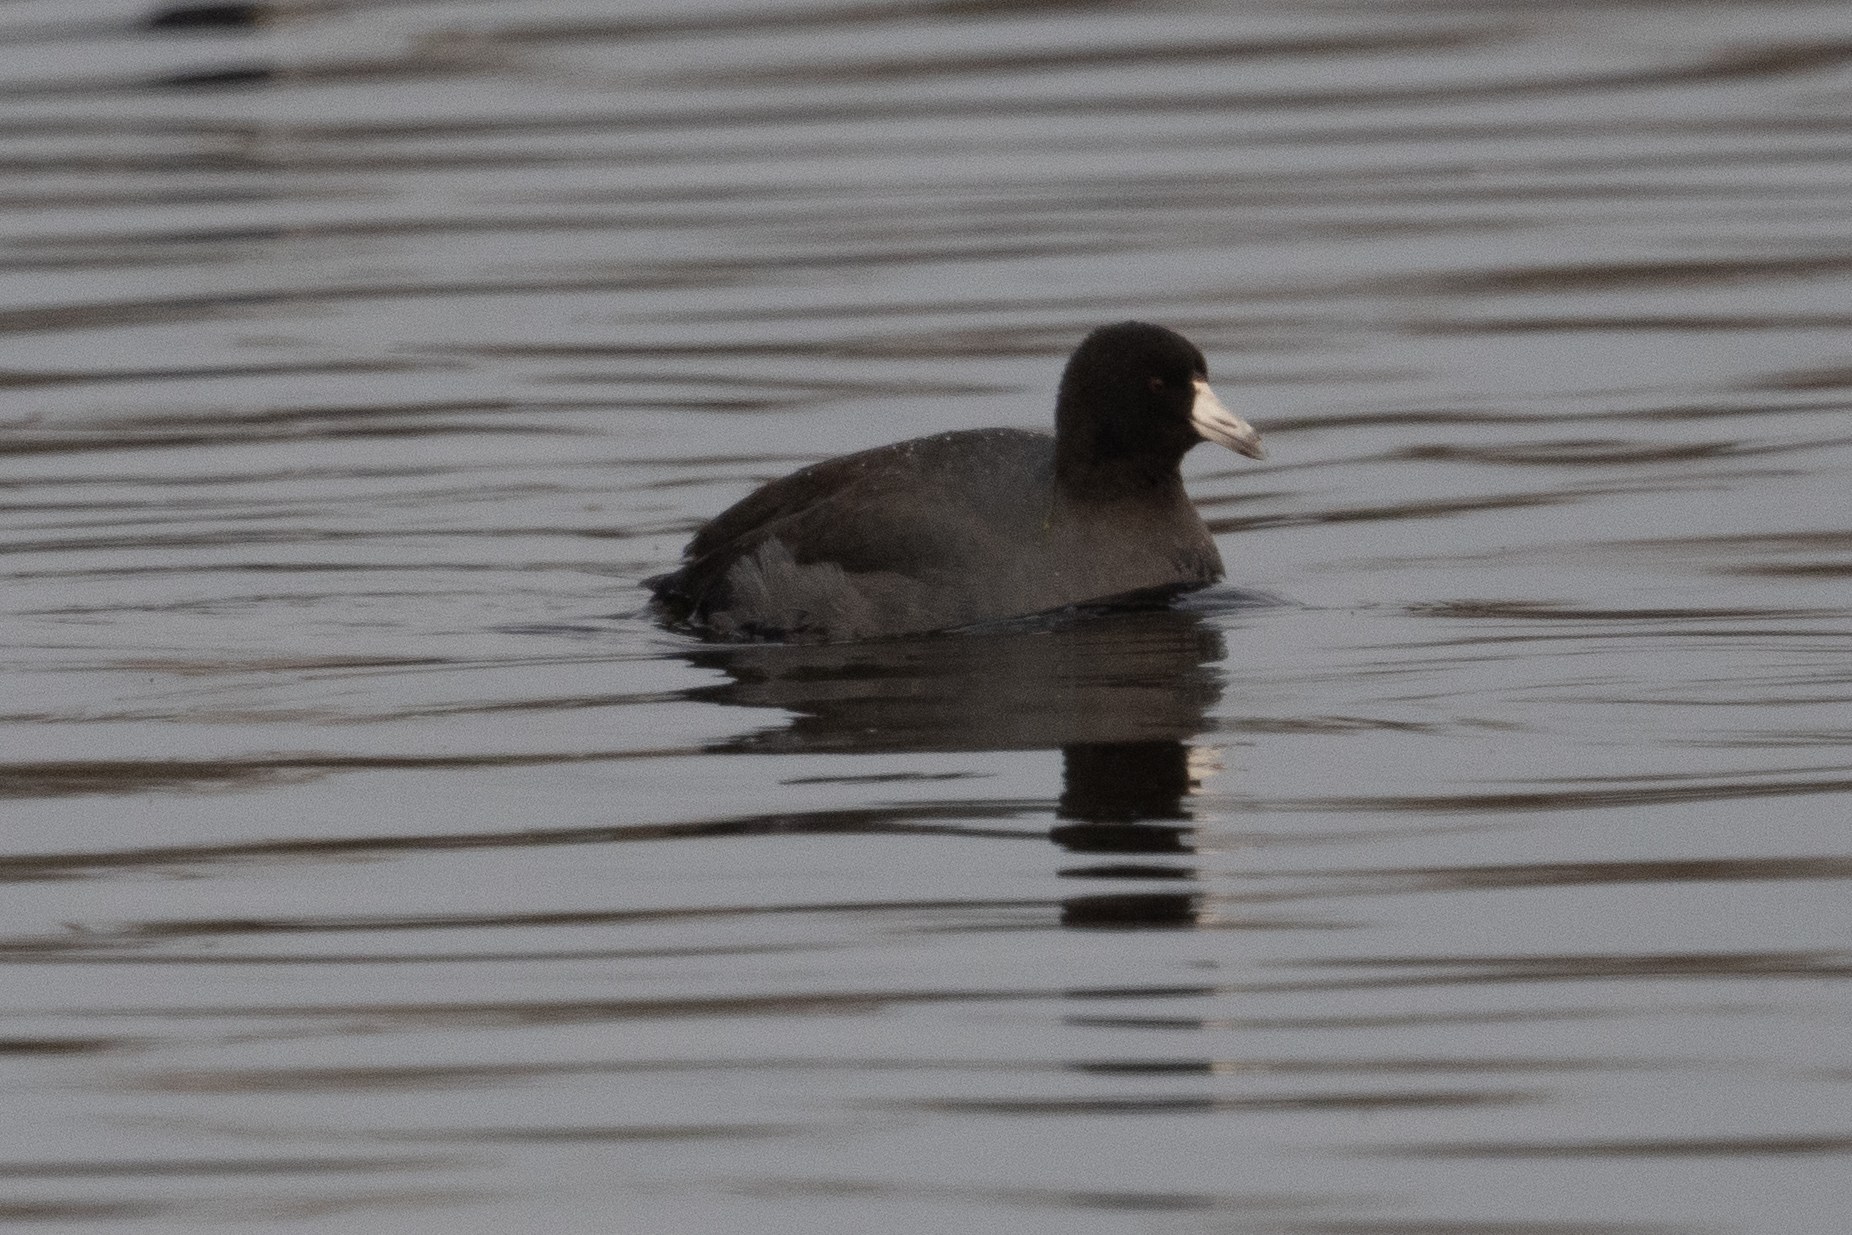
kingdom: Animalia
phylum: Chordata
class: Aves
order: Gruiformes
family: Rallidae
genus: Fulica
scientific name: Fulica americana
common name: American coot
